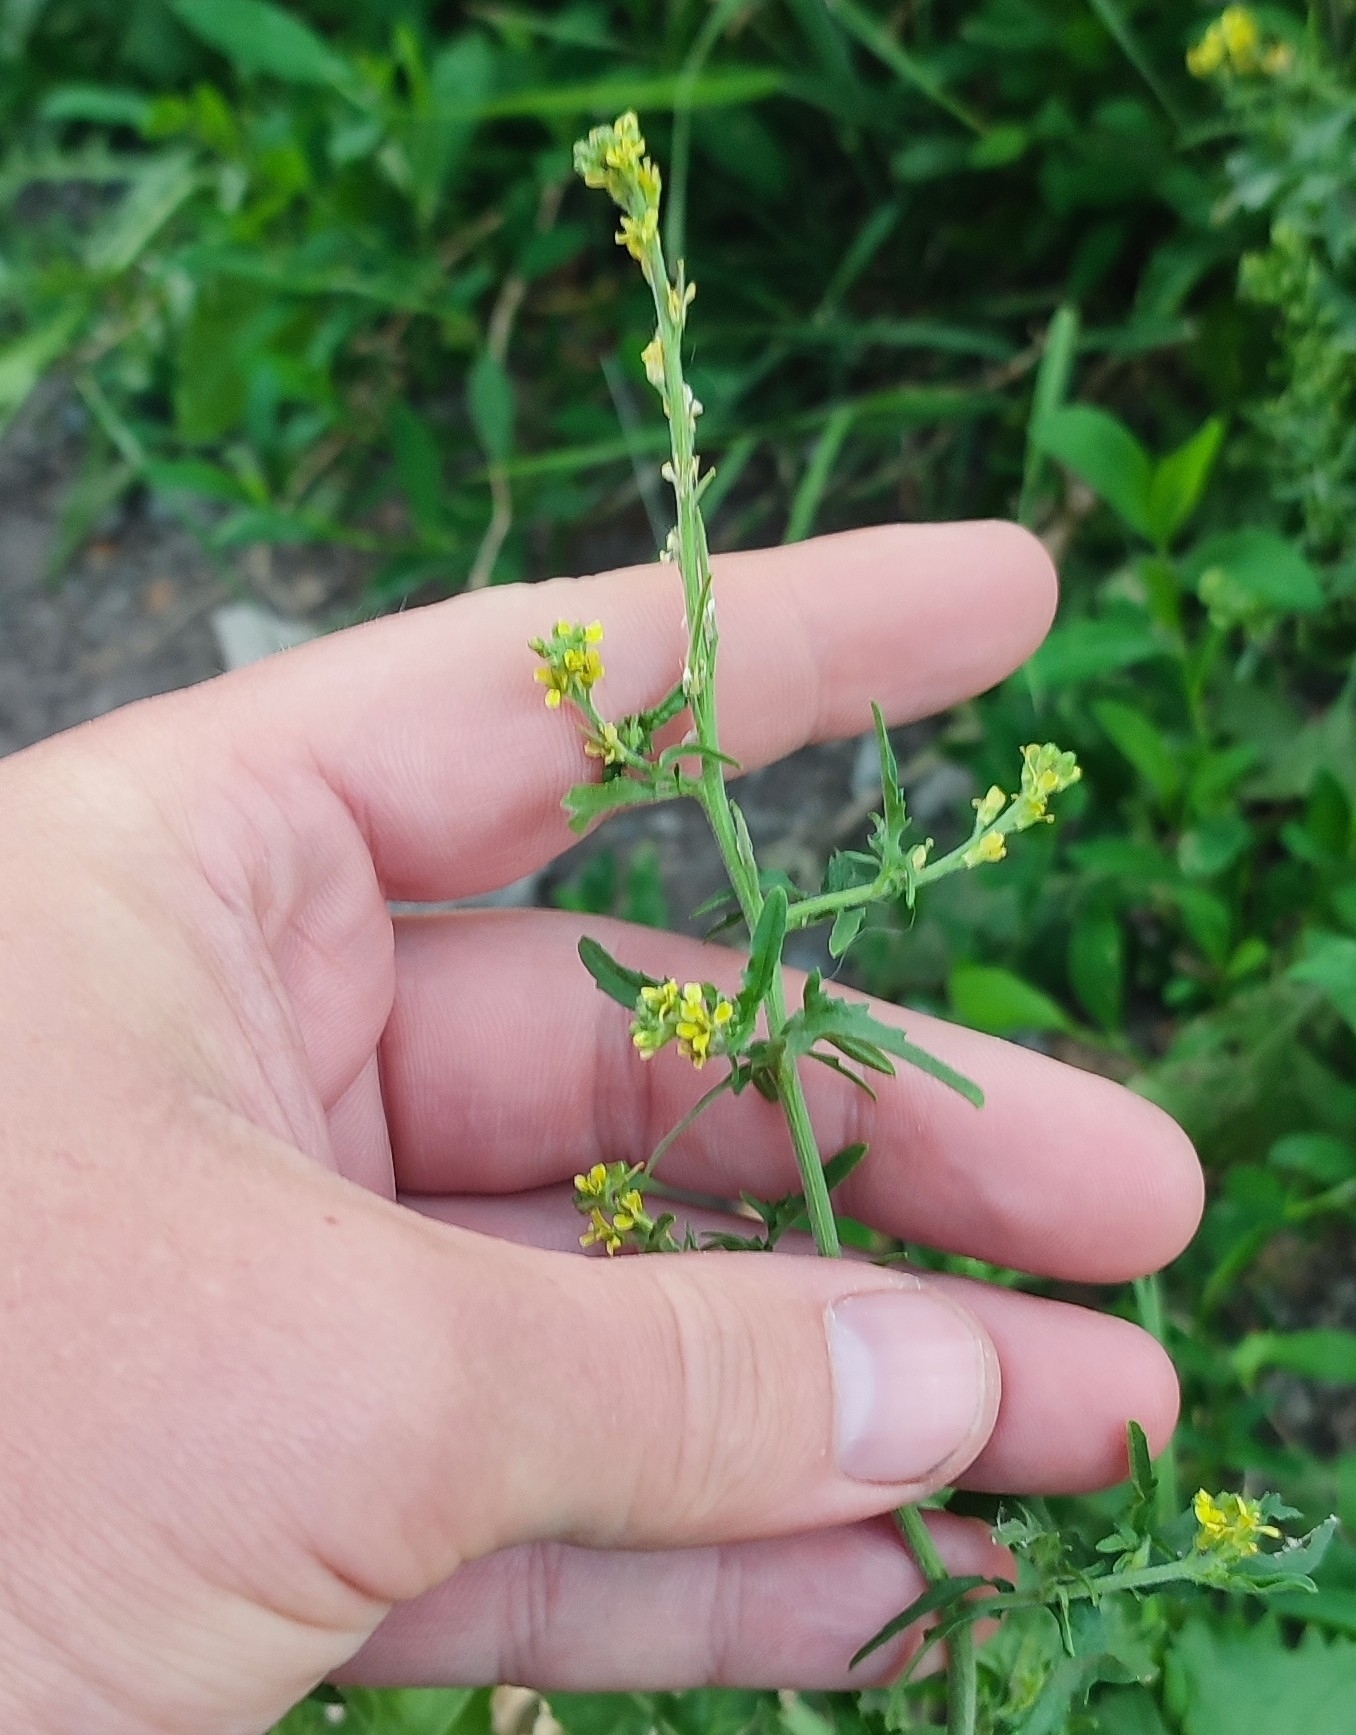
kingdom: Plantae
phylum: Tracheophyta
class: Magnoliopsida
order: Brassicales
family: Brassicaceae
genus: Sisymbrium
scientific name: Sisymbrium officinale
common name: Hedge mustard
